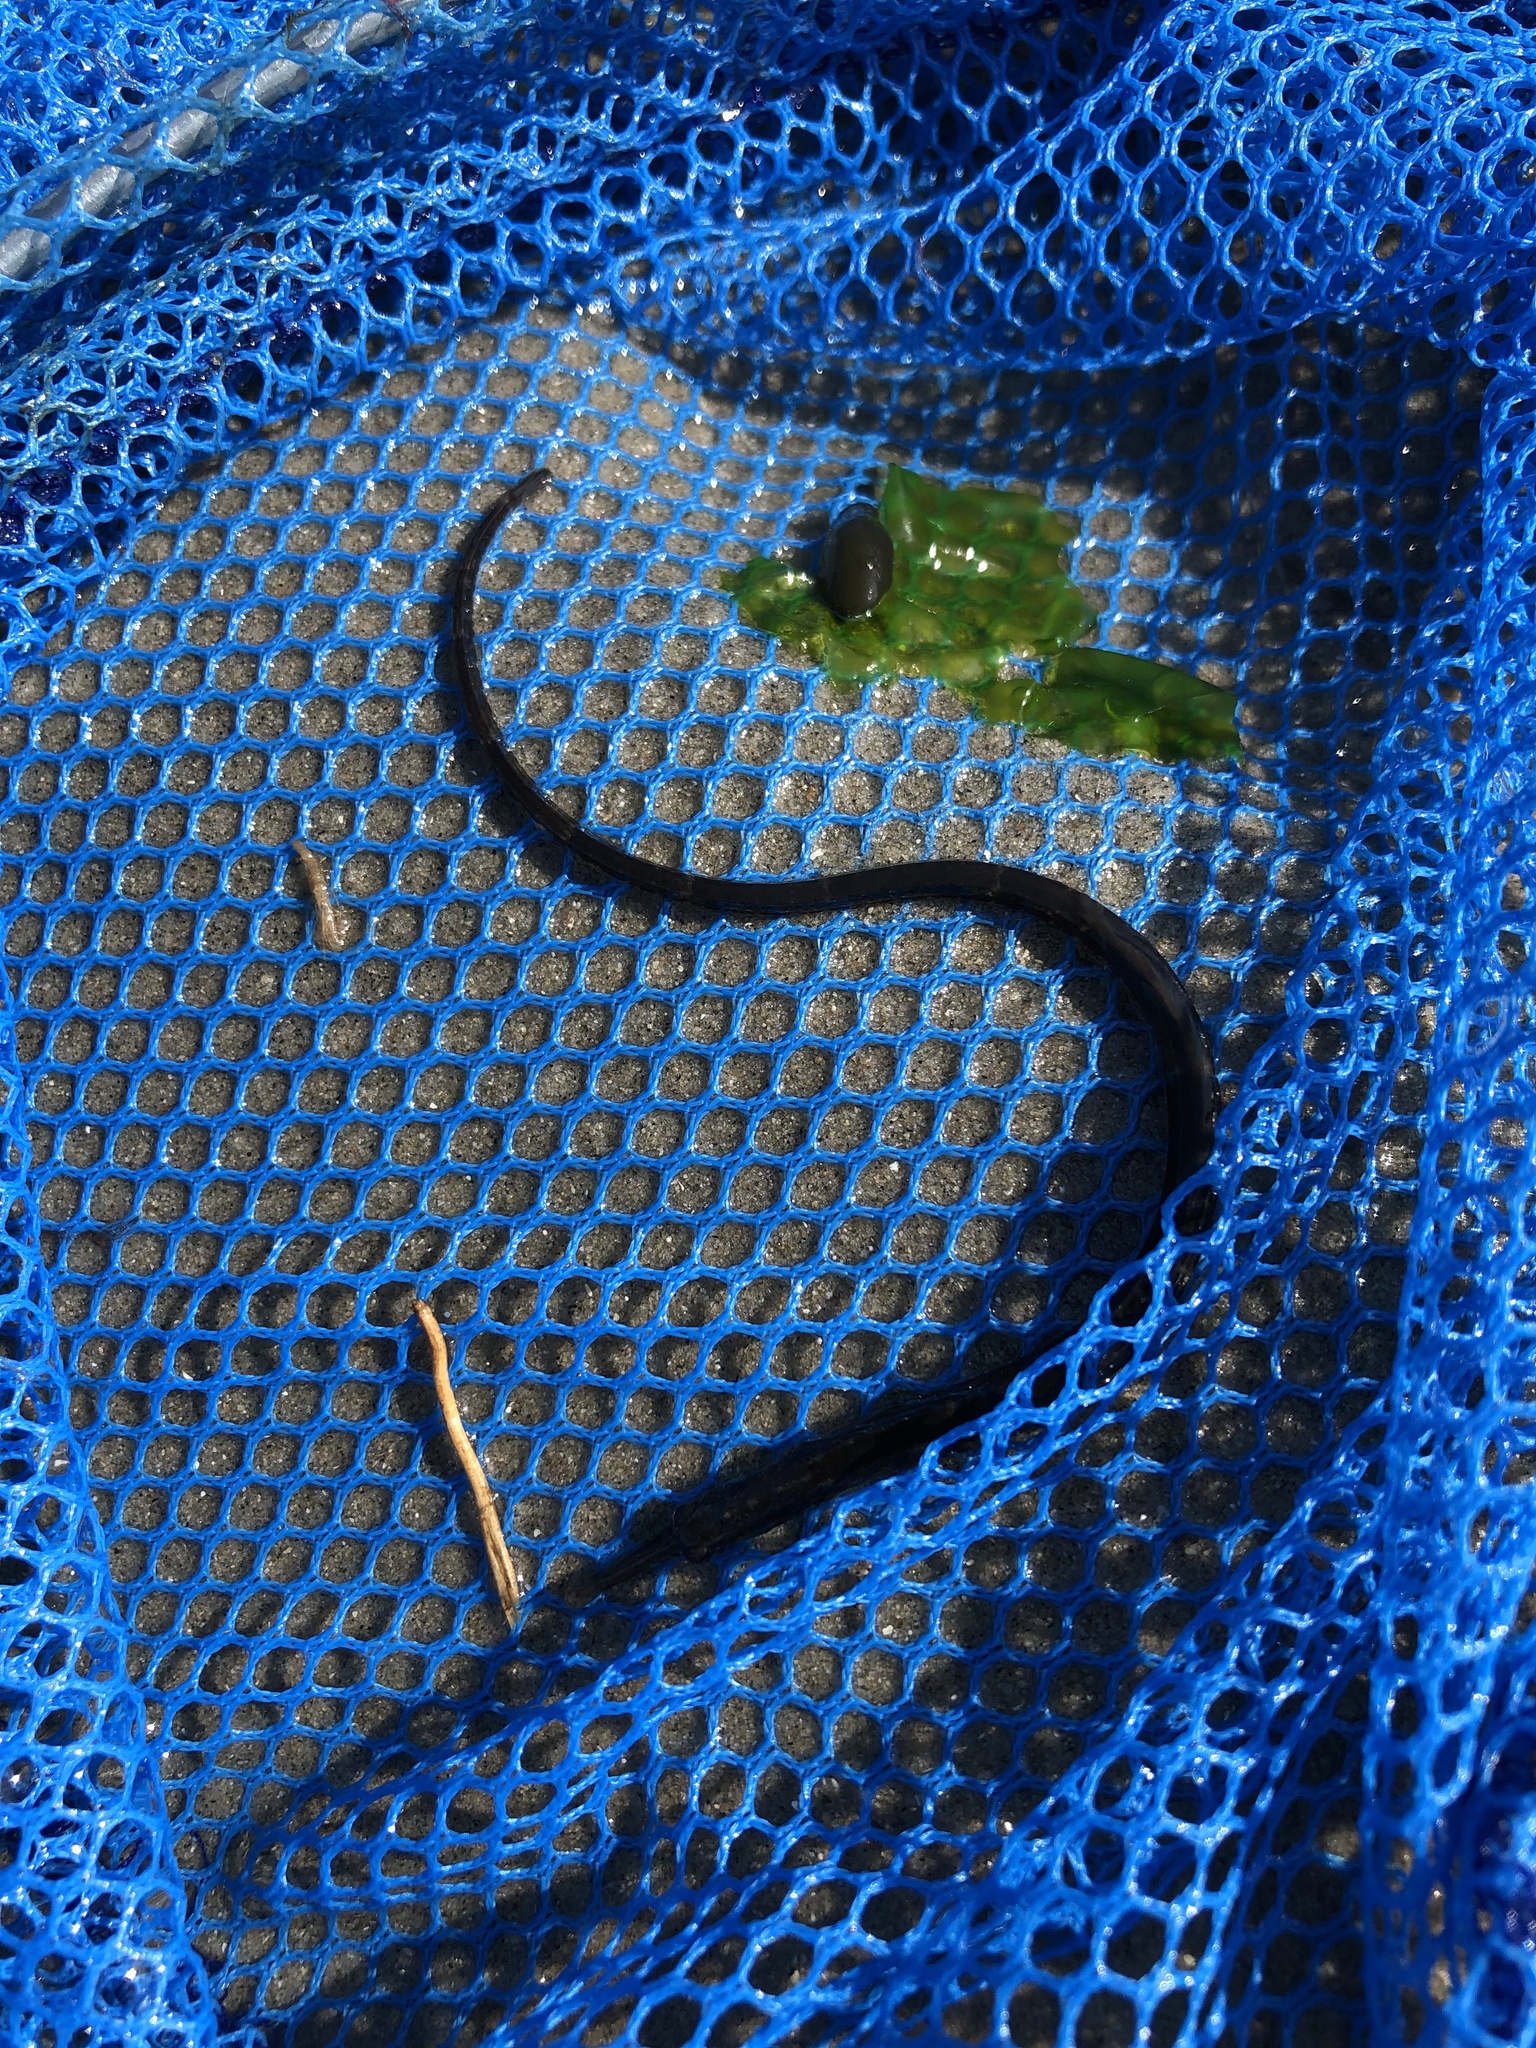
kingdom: Animalia
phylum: Chordata
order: Syngnathiformes
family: Syngnathidae
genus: Syngnathus
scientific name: Syngnathus fuscus
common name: Northern pipefish
